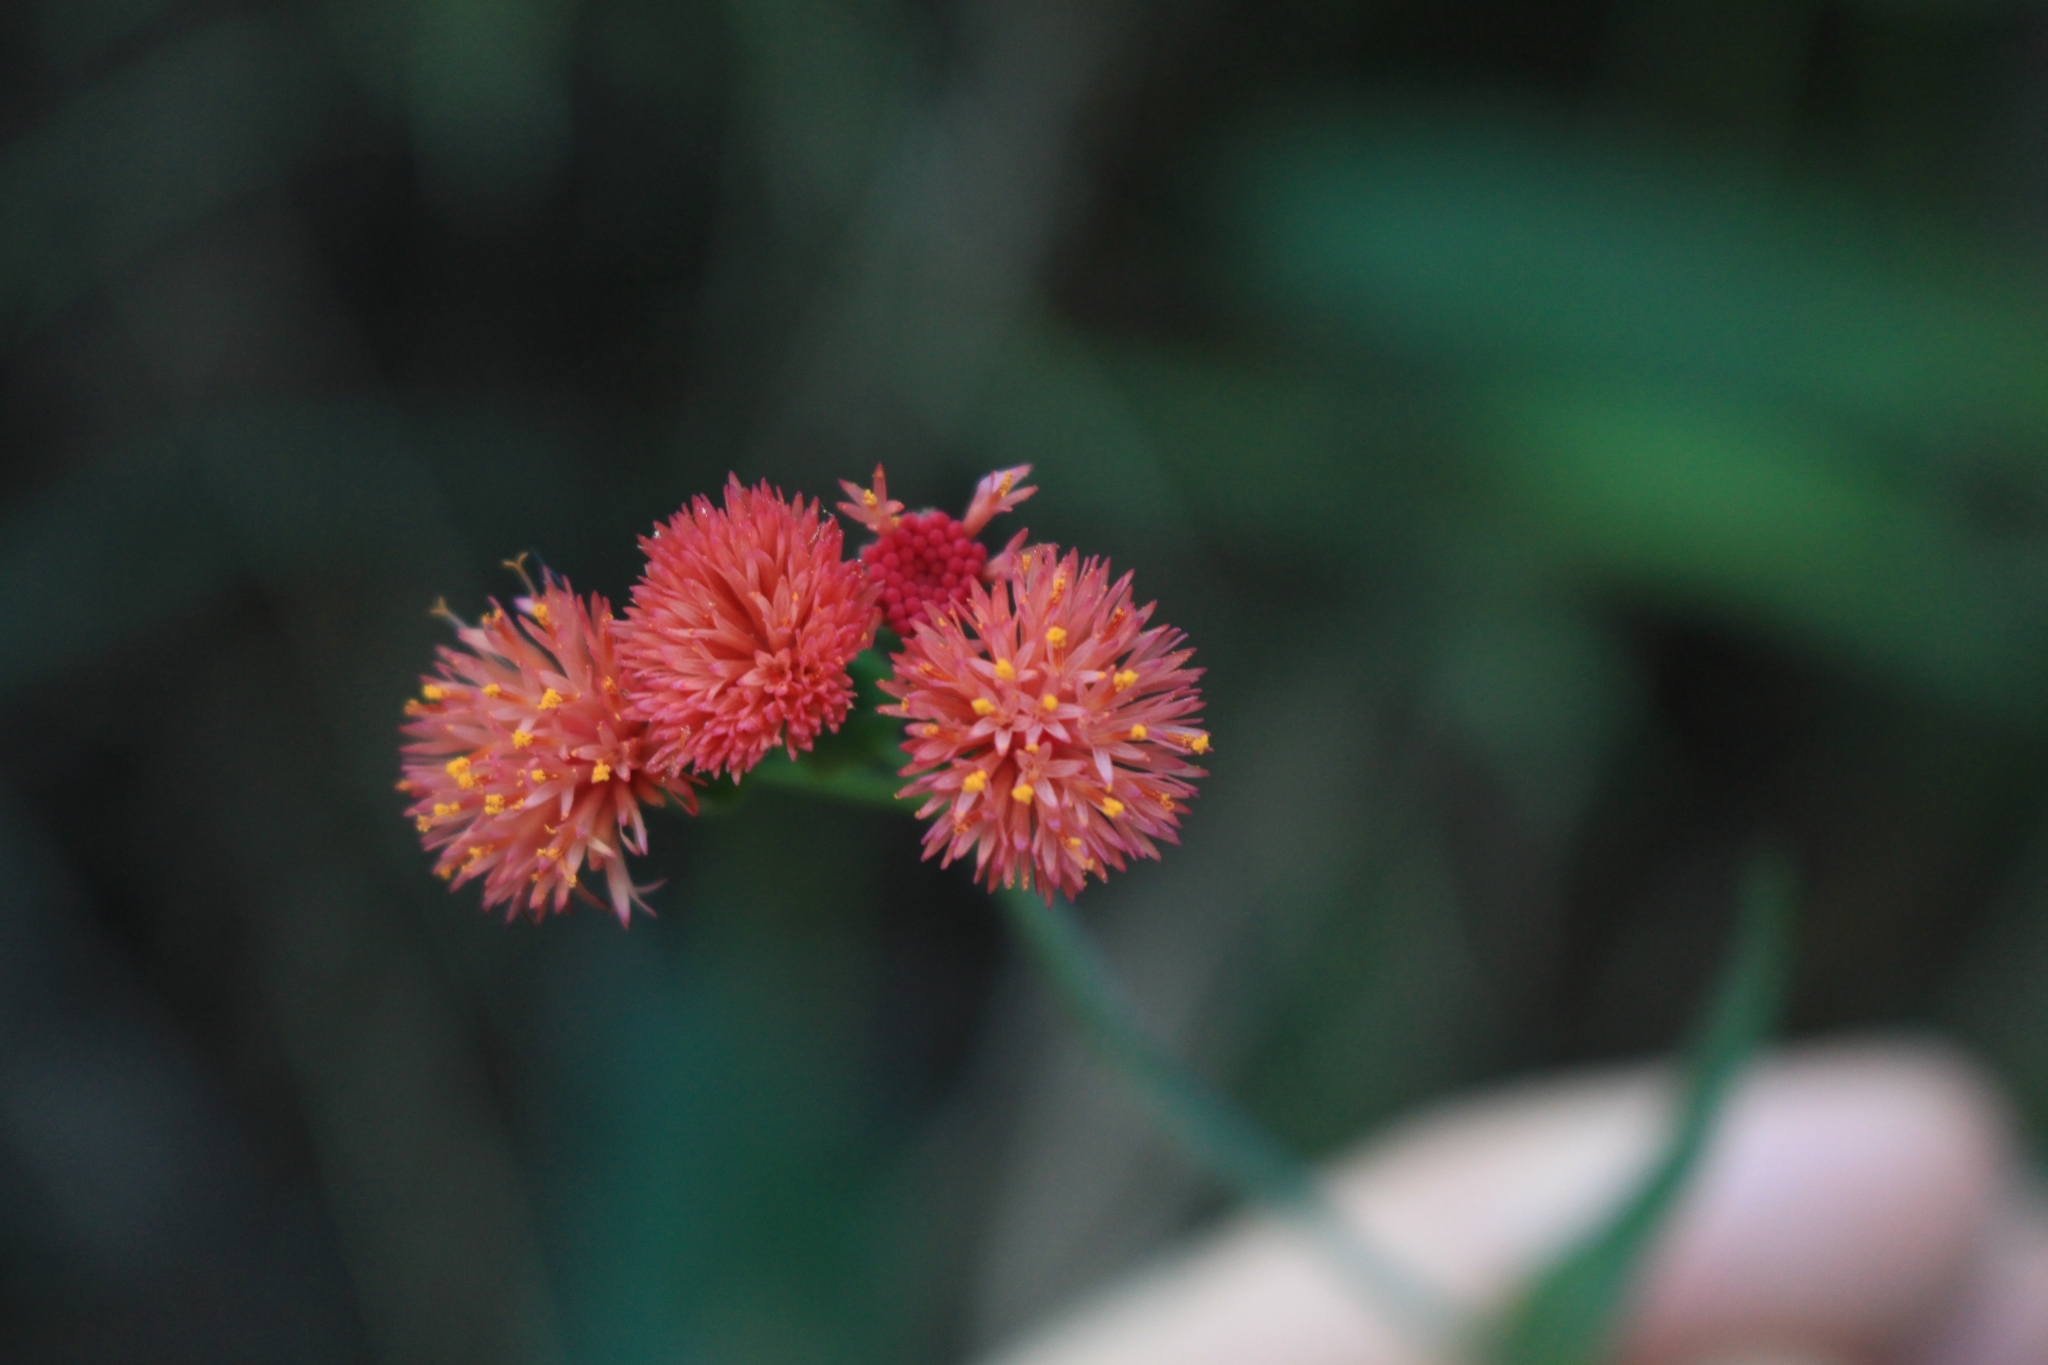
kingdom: Plantae
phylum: Tracheophyta
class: Magnoliopsida
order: Asterales
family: Asteraceae
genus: Emilia
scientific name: Emilia fosbergii
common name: Florida tasselflower
